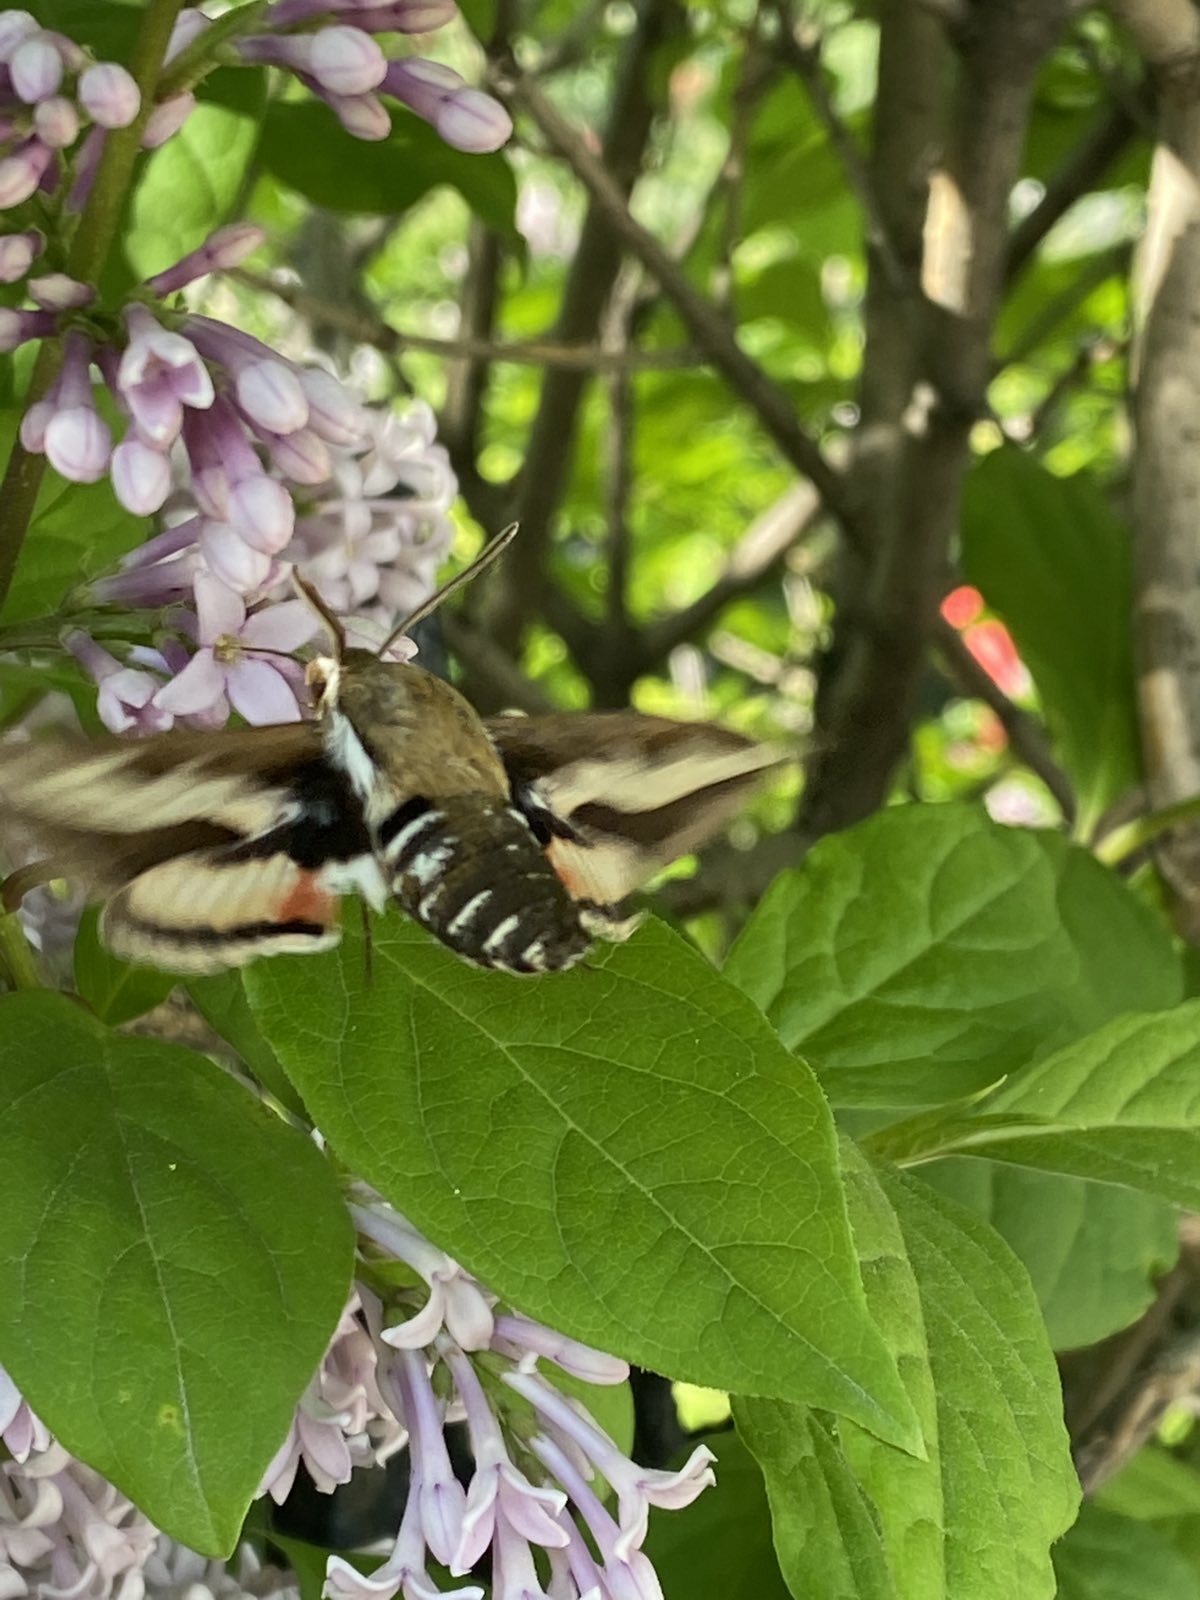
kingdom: Animalia
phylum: Arthropoda
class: Insecta
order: Lepidoptera
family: Sphingidae
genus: Hyles
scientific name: Hyles gallii
